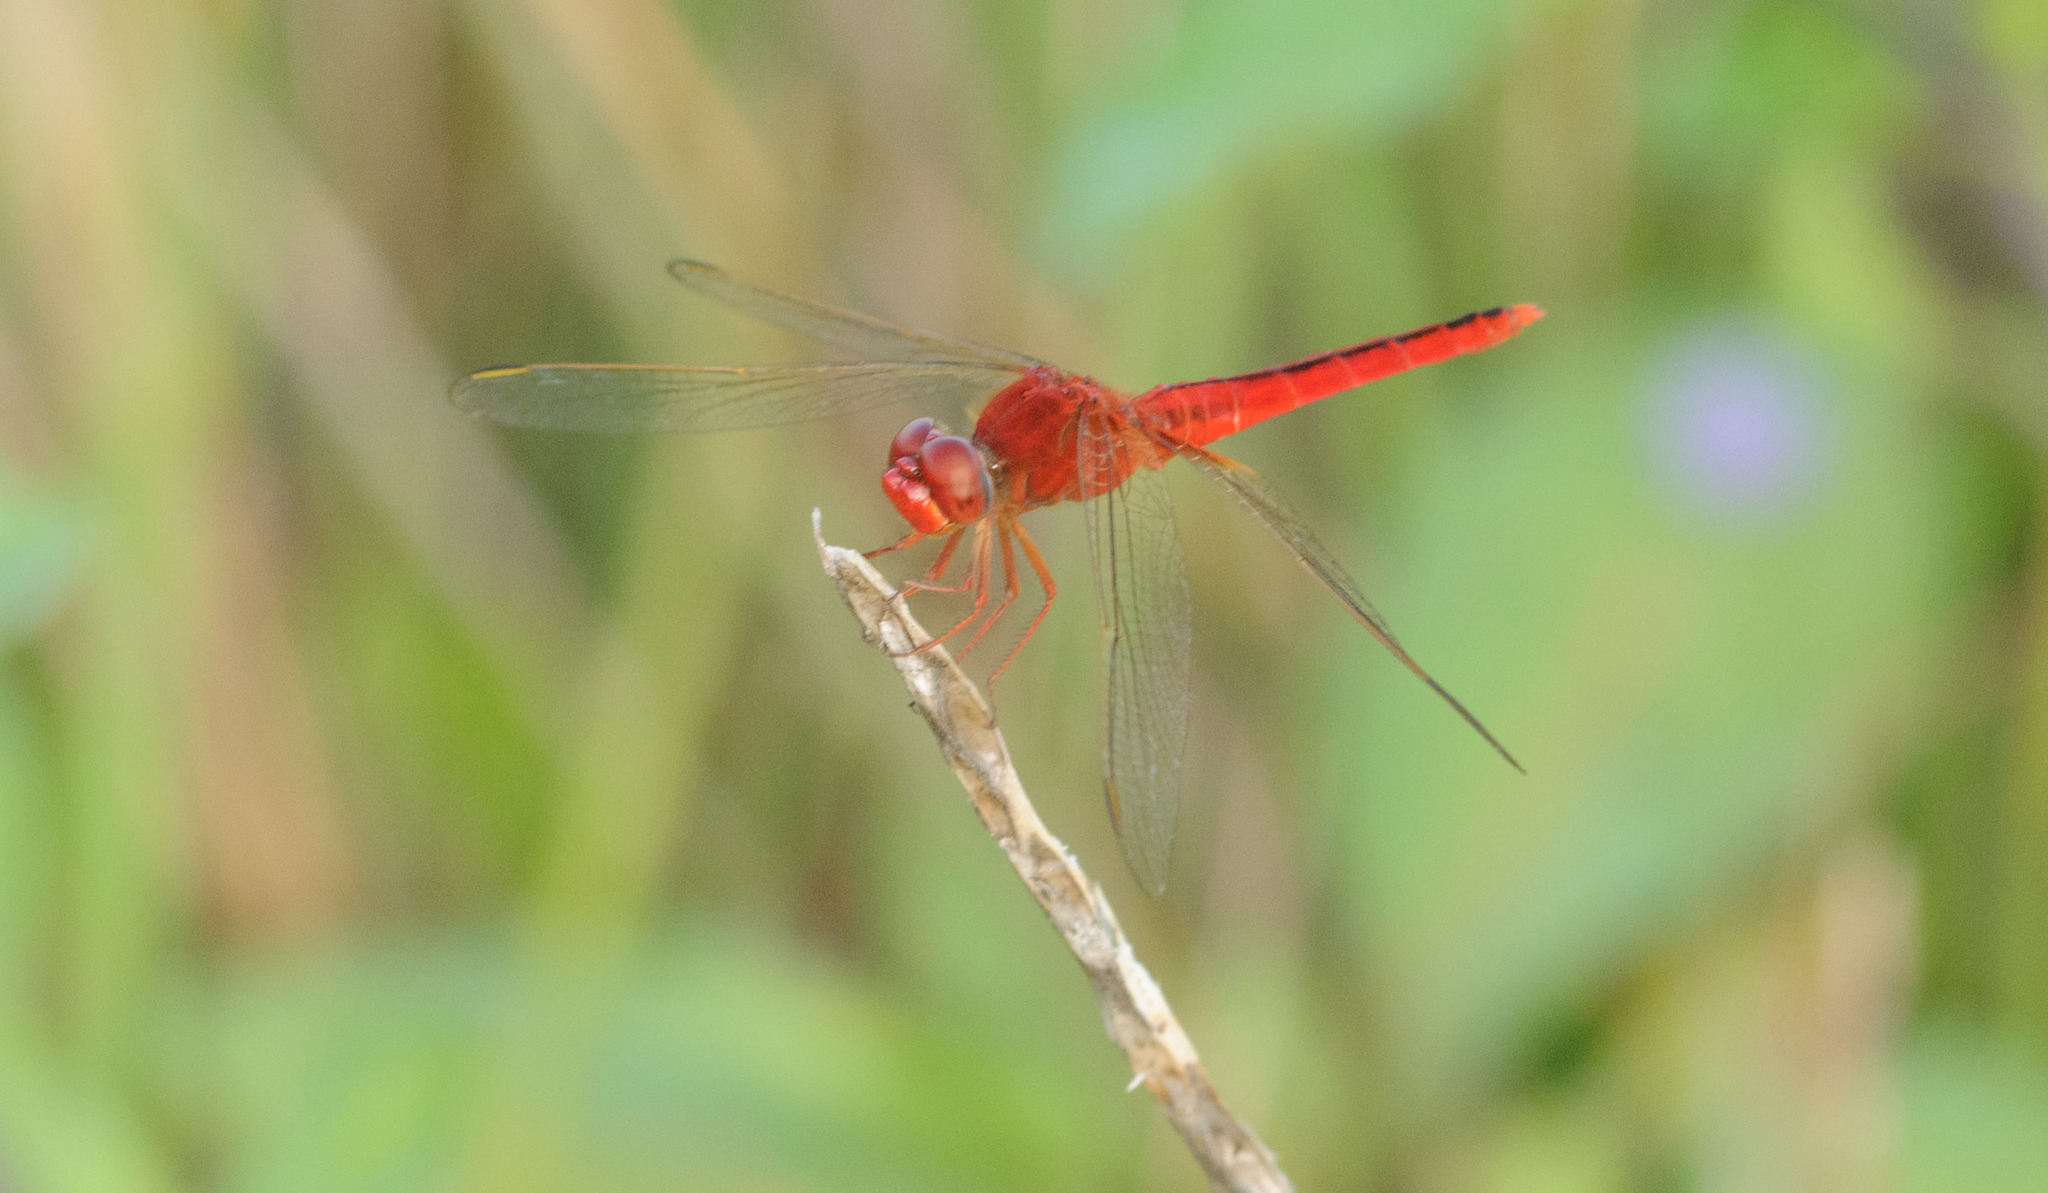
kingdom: Animalia
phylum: Arthropoda
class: Insecta
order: Odonata
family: Libellulidae
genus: Crocothemis
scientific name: Crocothemis servilia
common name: Scarlet skimmer
